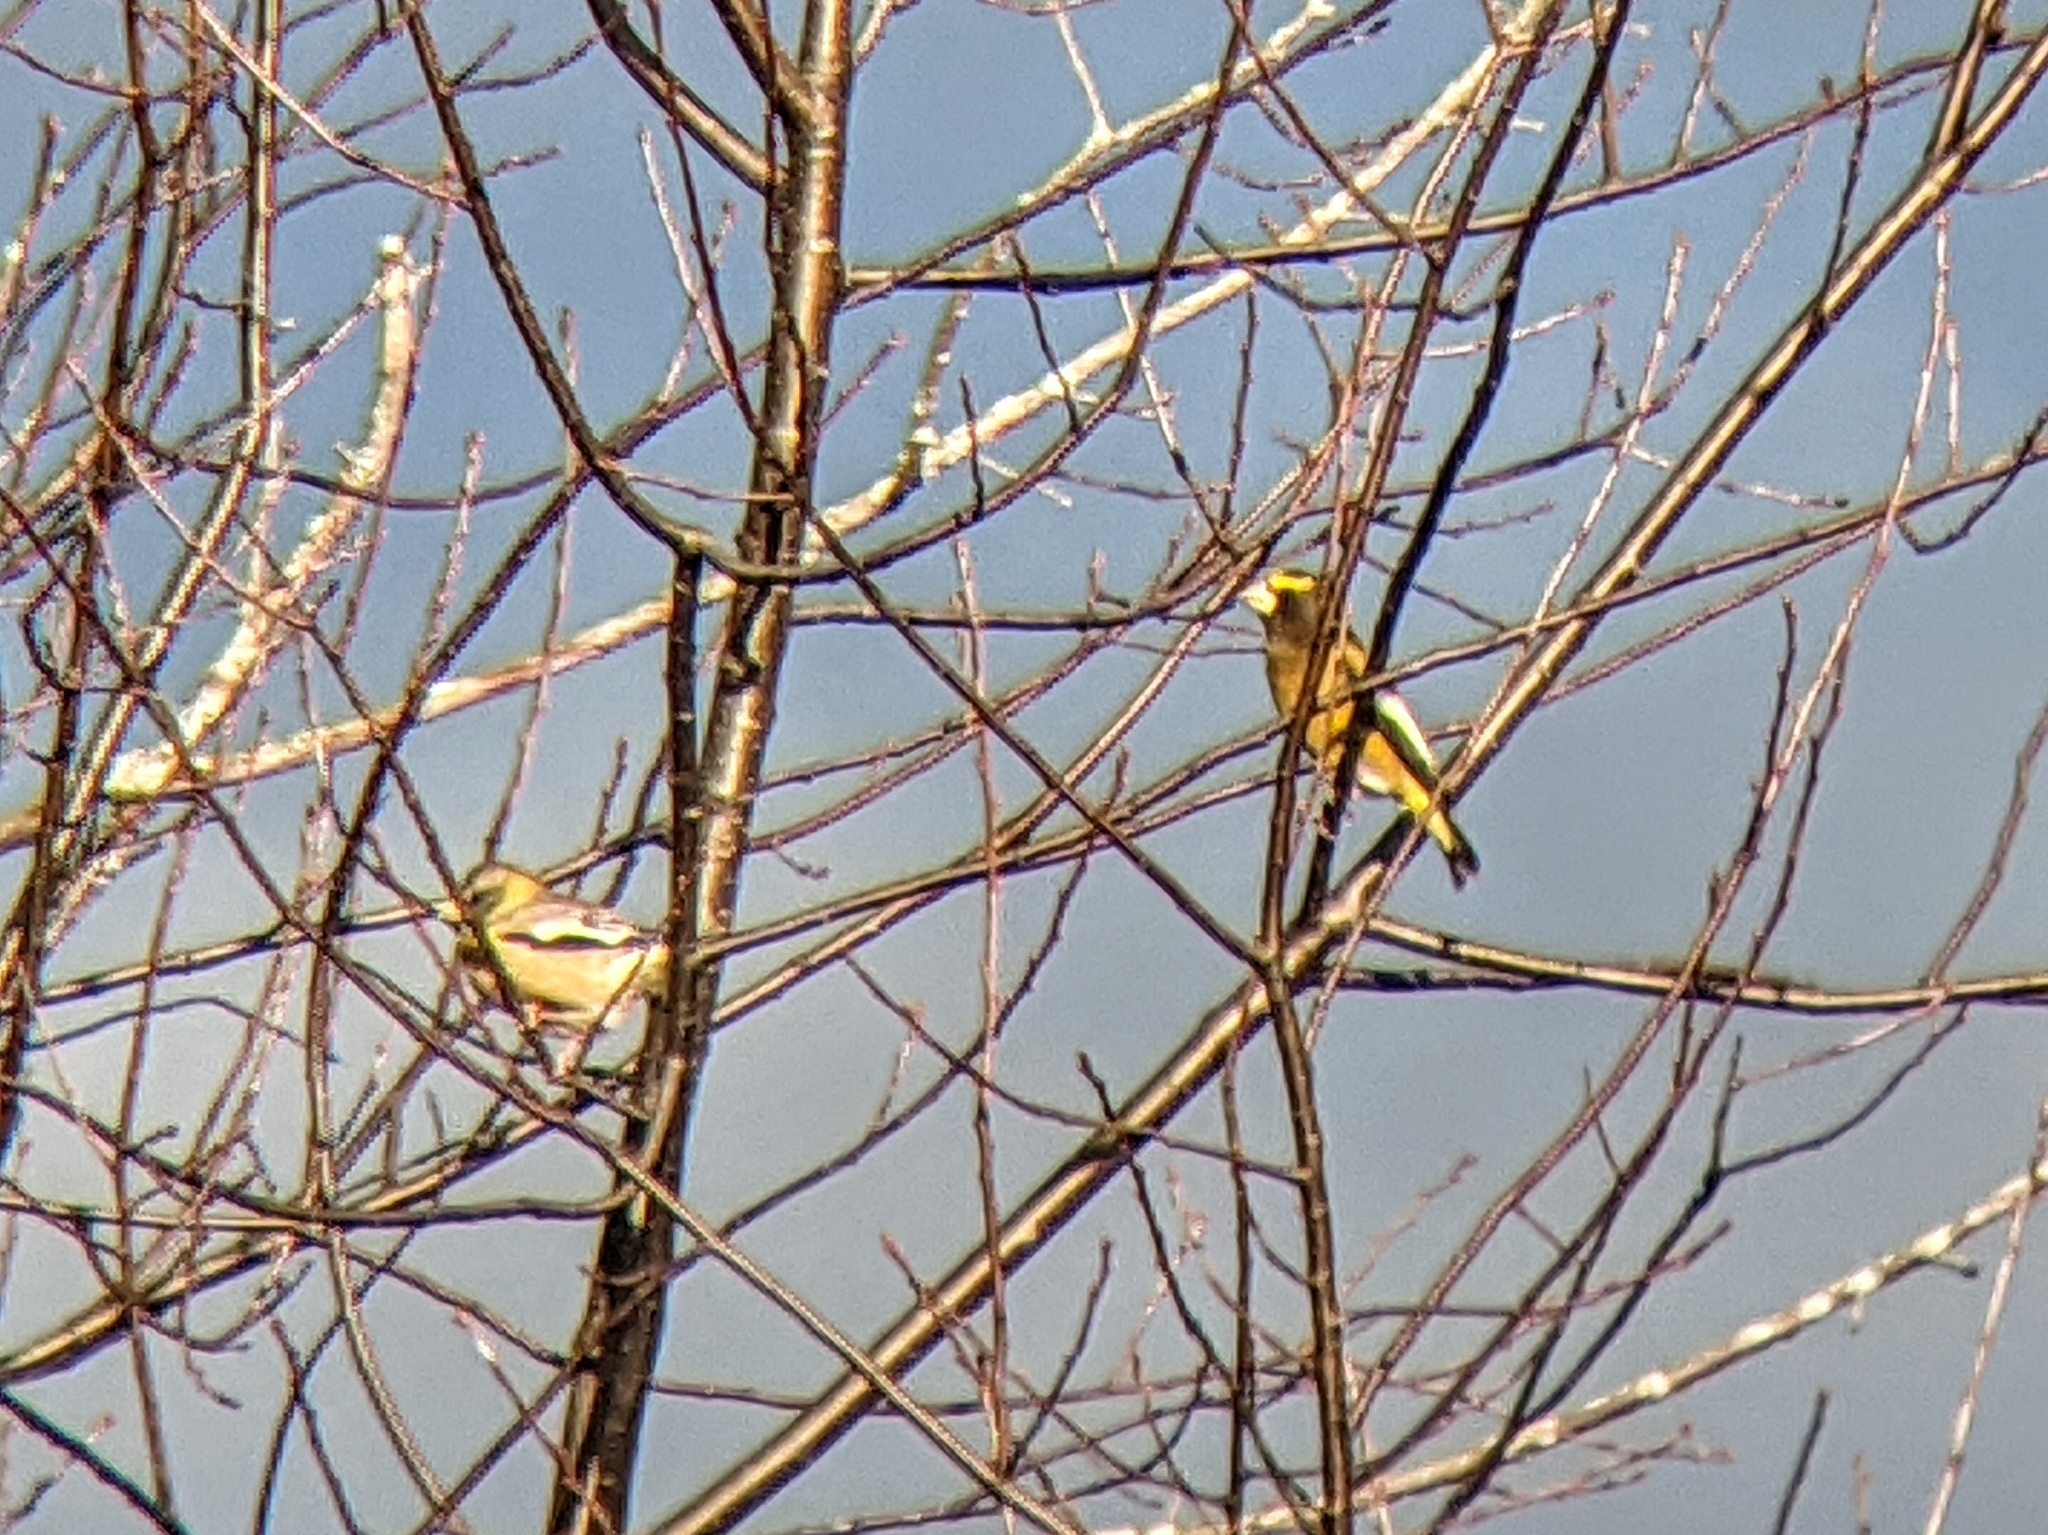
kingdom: Animalia
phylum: Chordata
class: Aves
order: Passeriformes
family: Fringillidae
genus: Hesperiphona
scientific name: Hesperiphona vespertina
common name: Evening grosbeak
